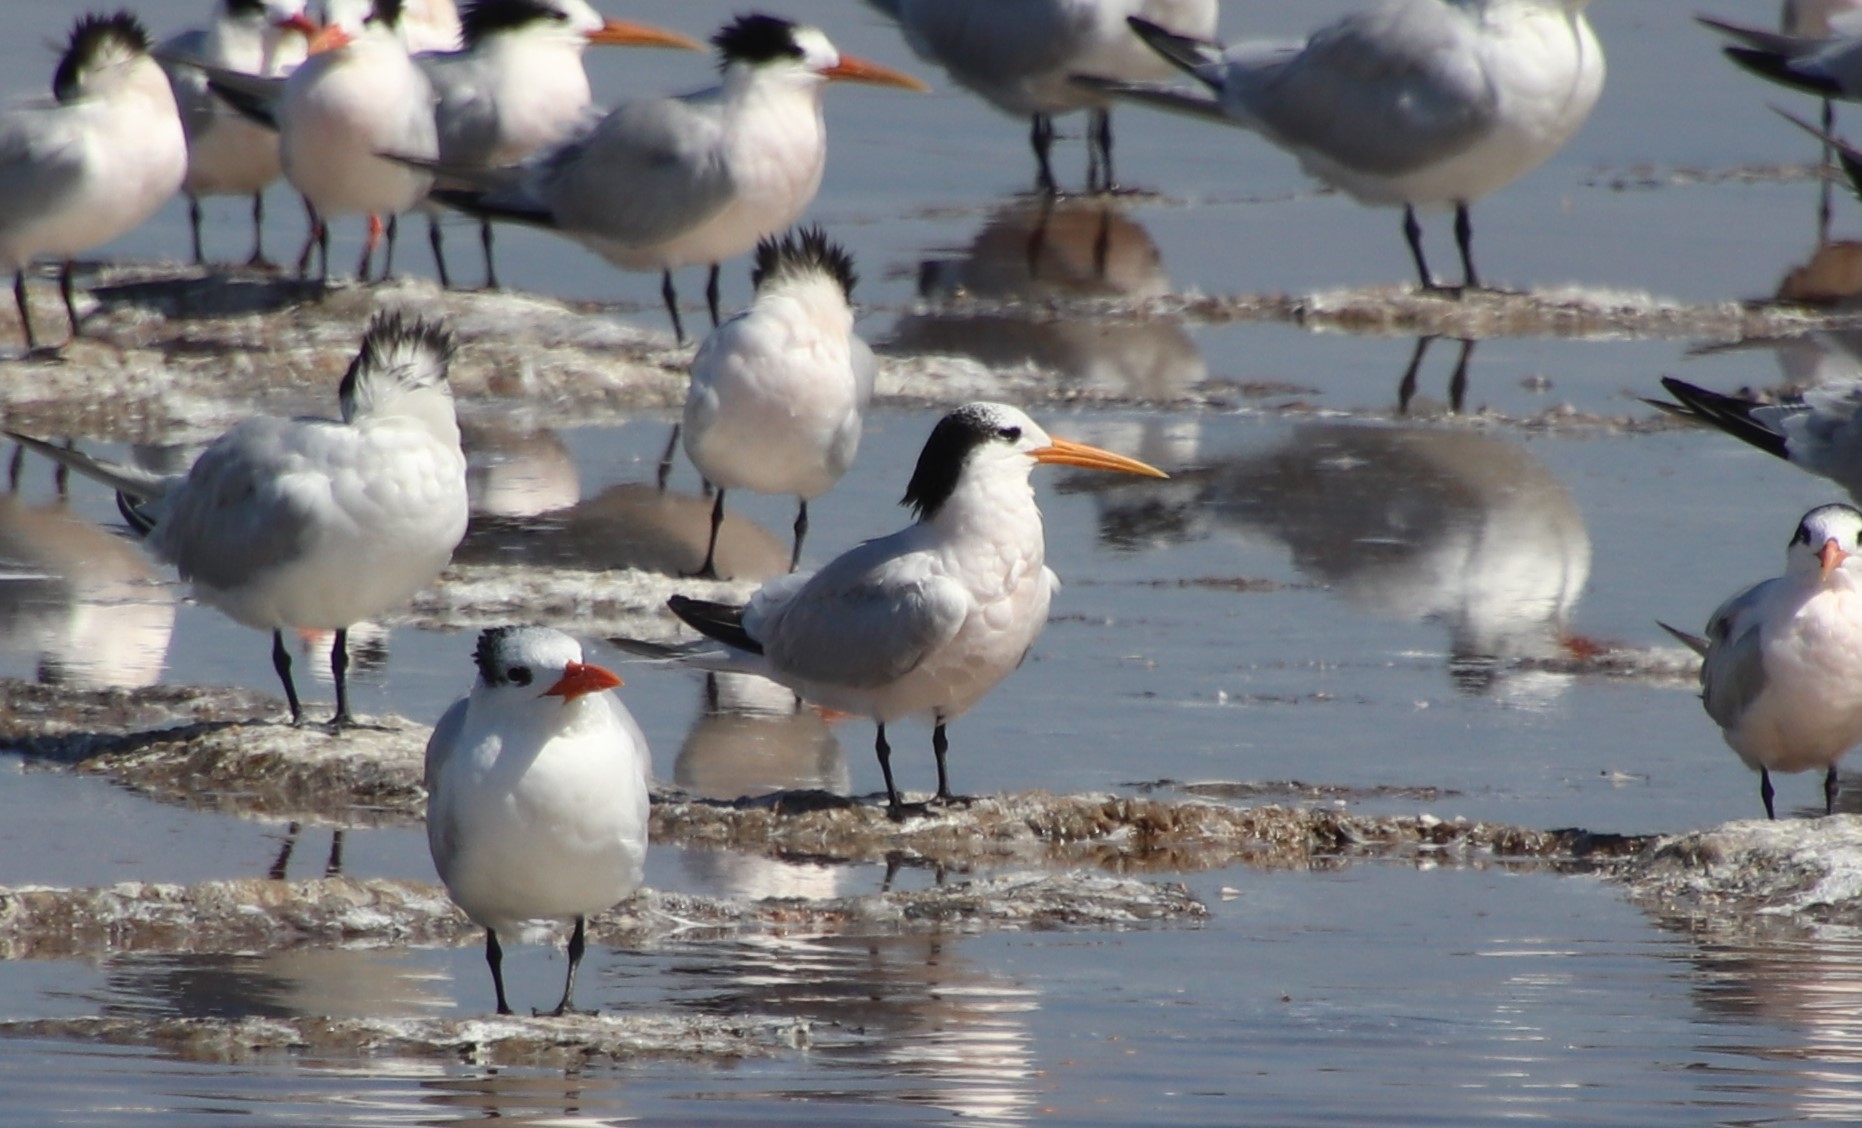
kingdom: Animalia
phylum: Chordata
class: Aves
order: Charadriiformes
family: Laridae
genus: Thalasseus
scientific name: Thalasseus elegans
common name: Elegant tern
